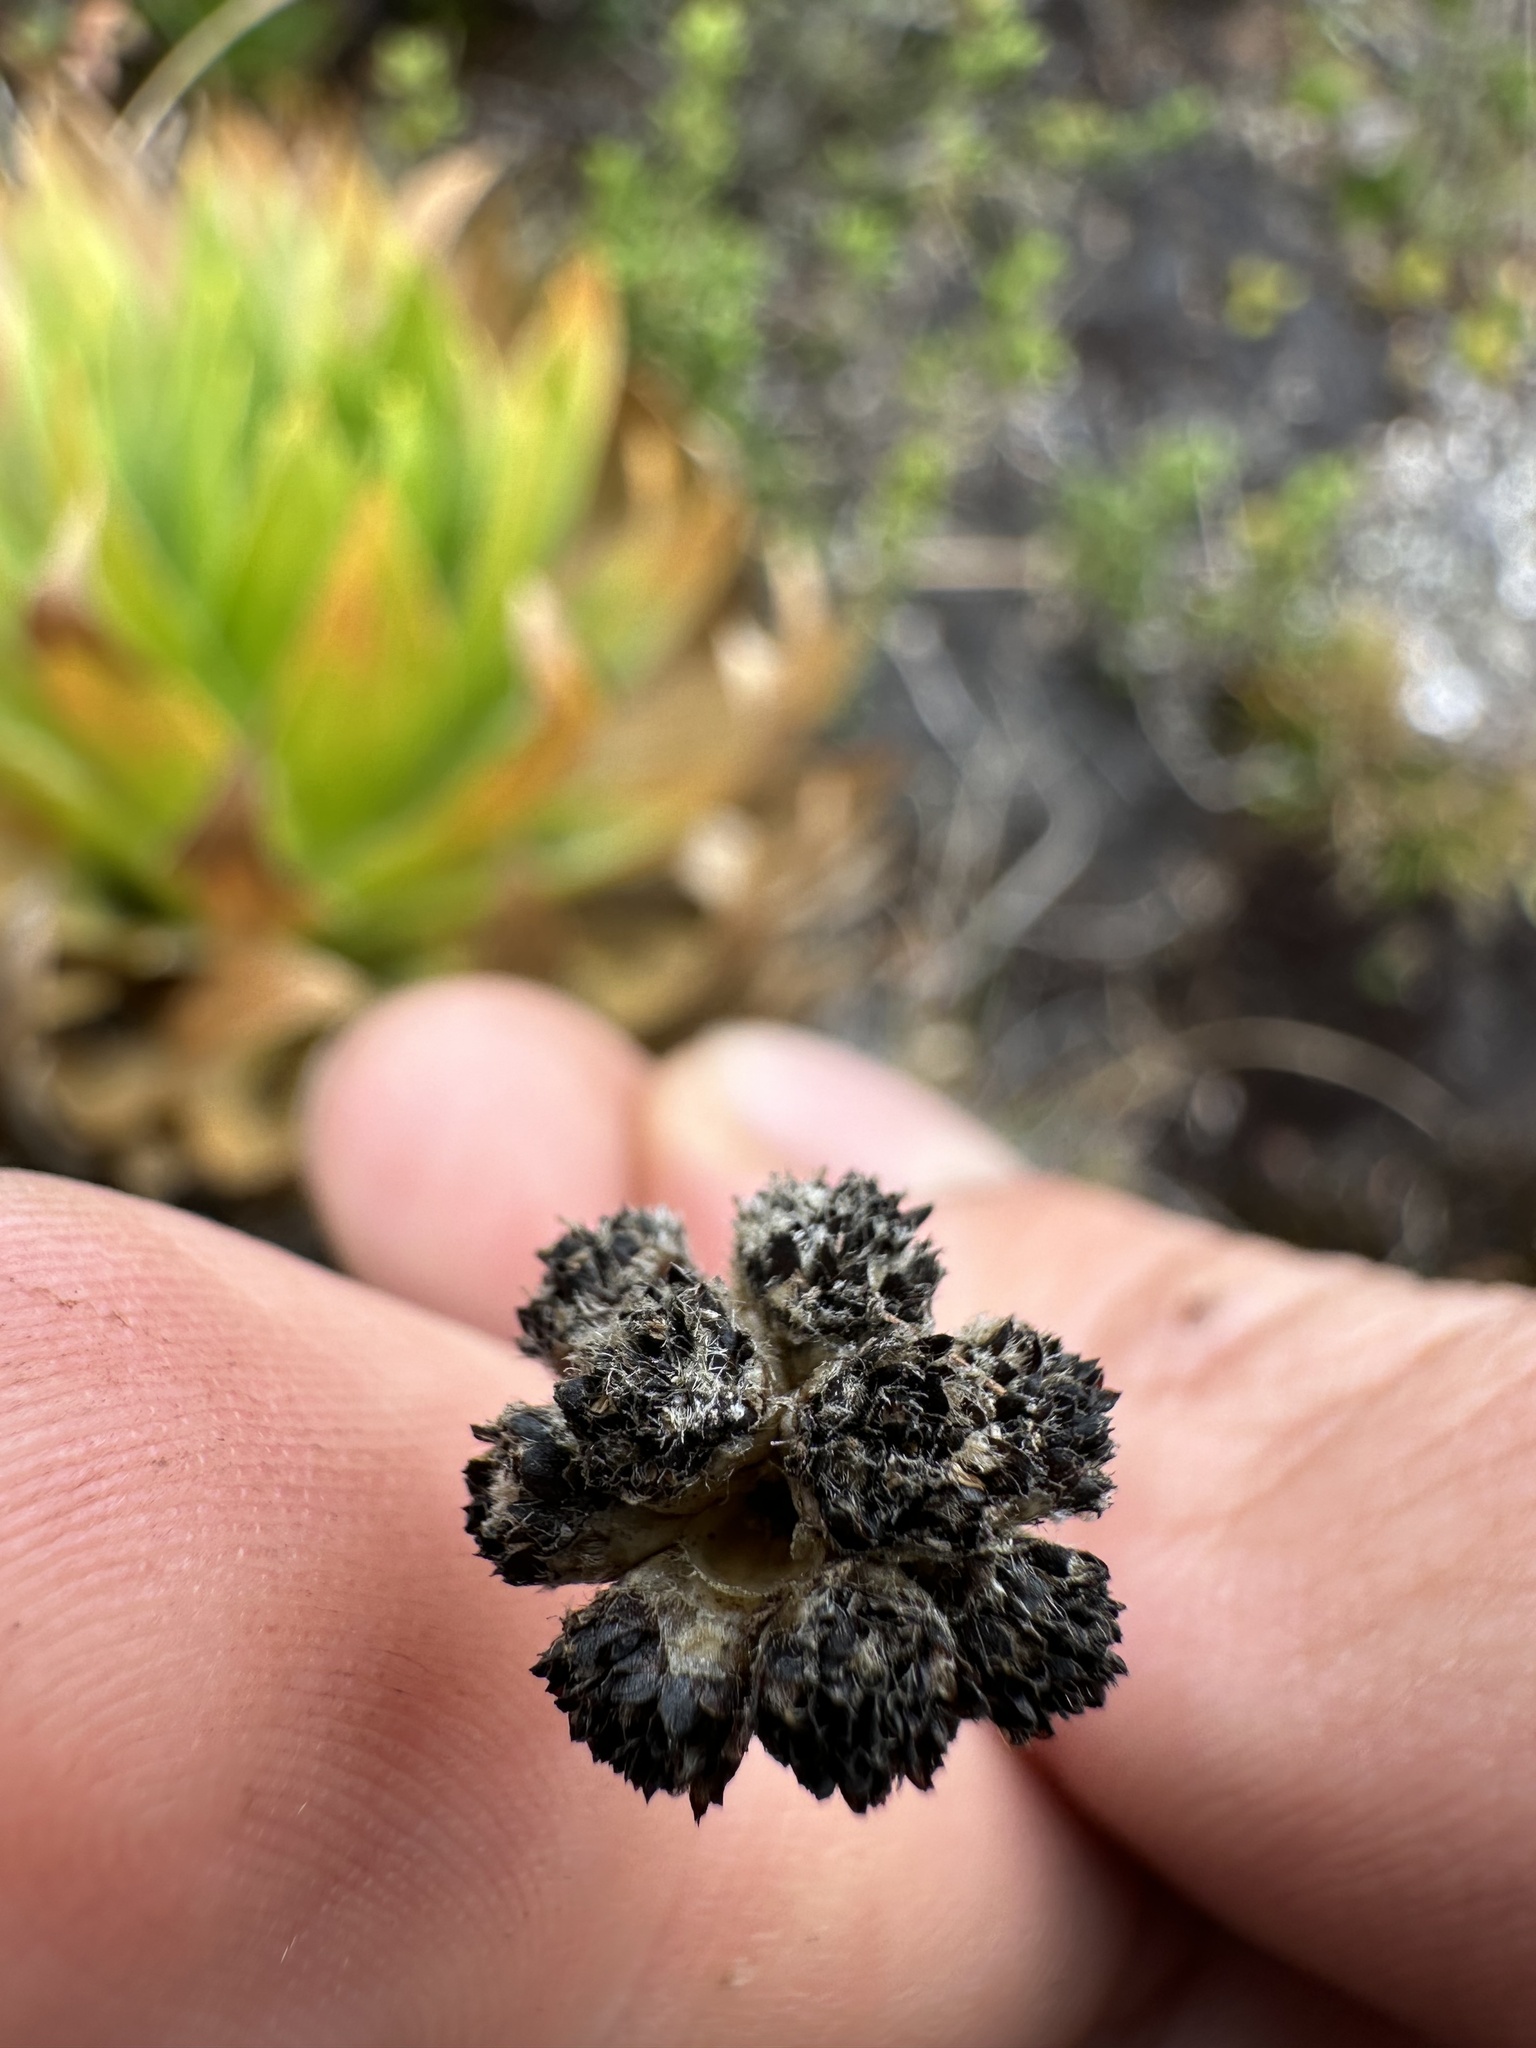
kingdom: Plantae
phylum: Tracheophyta
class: Liliopsida
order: Poales
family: Eriocaulaceae
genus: Paepalanthus
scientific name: Paepalanthus alpinus
